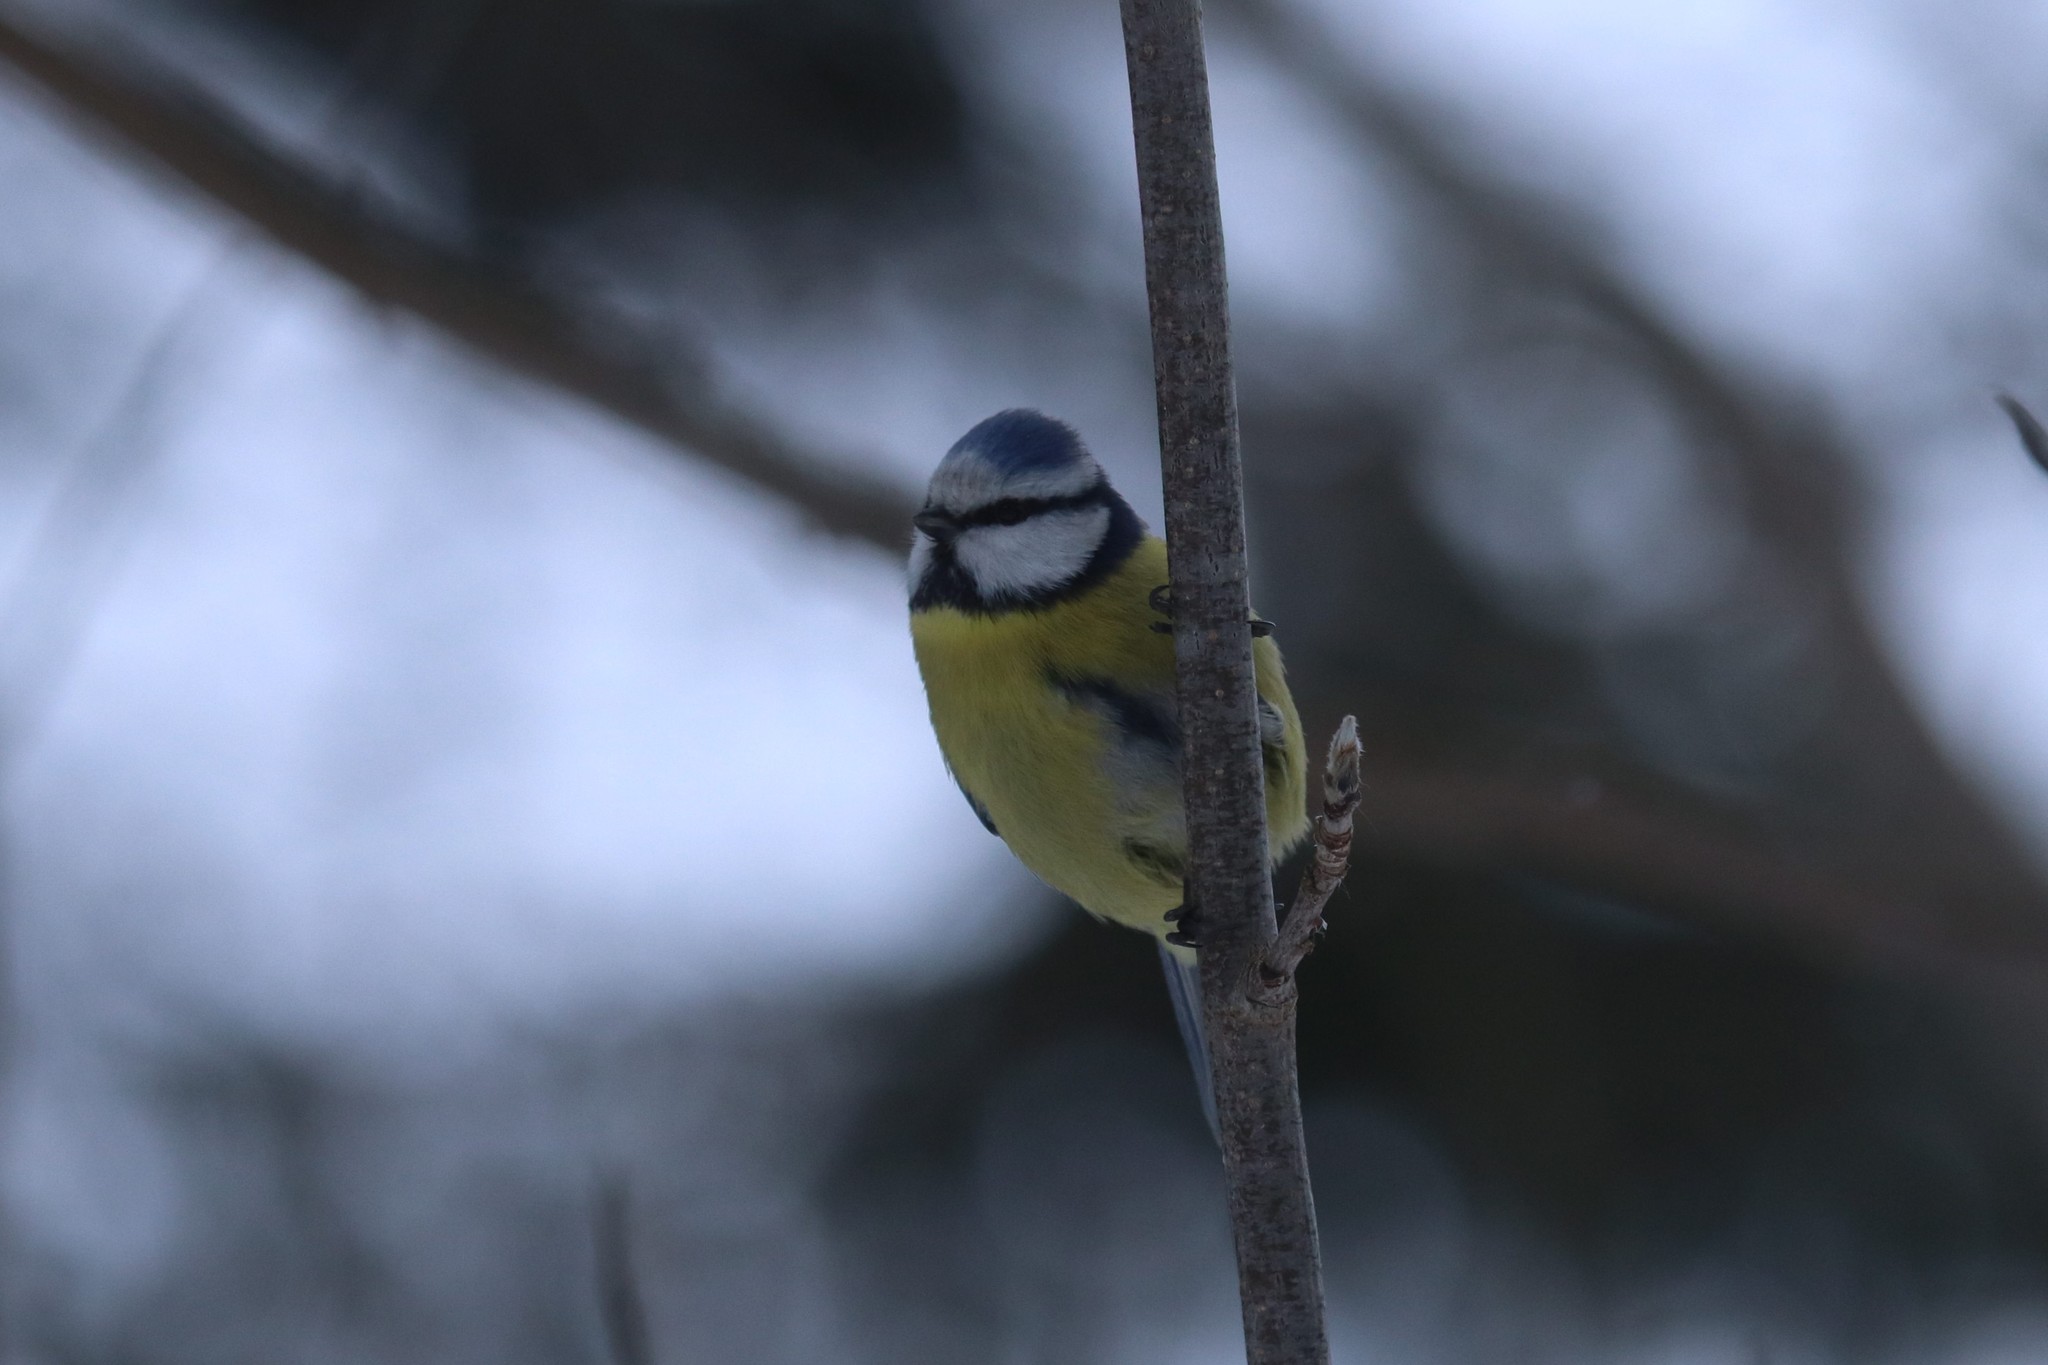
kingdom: Animalia
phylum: Chordata
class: Aves
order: Passeriformes
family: Paridae
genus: Cyanistes
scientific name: Cyanistes caeruleus
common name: Eurasian blue tit
